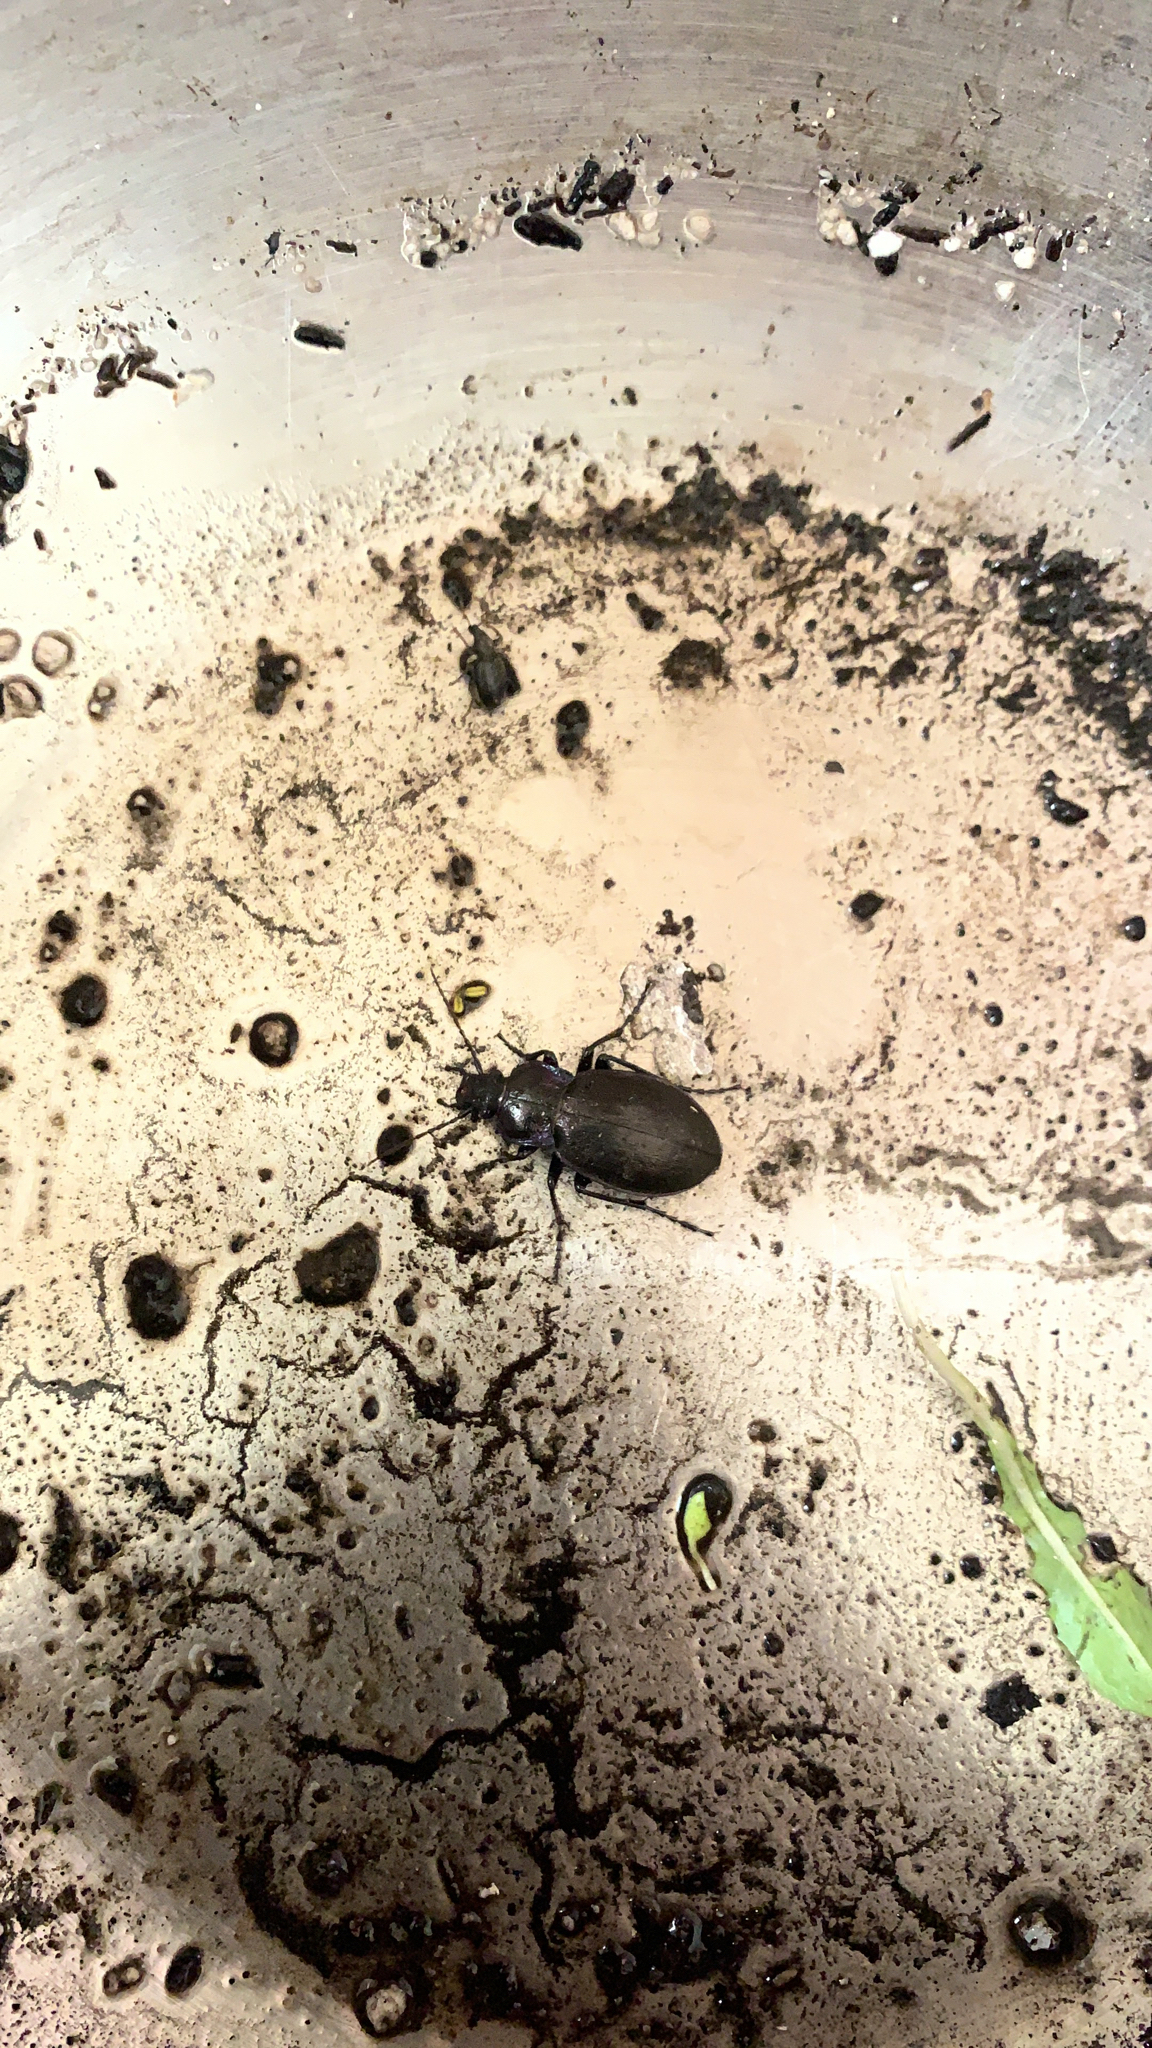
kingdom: Animalia
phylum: Arthropoda
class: Insecta
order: Coleoptera
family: Carabidae
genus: Carabus
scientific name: Carabus nemoralis
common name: European ground beetle
